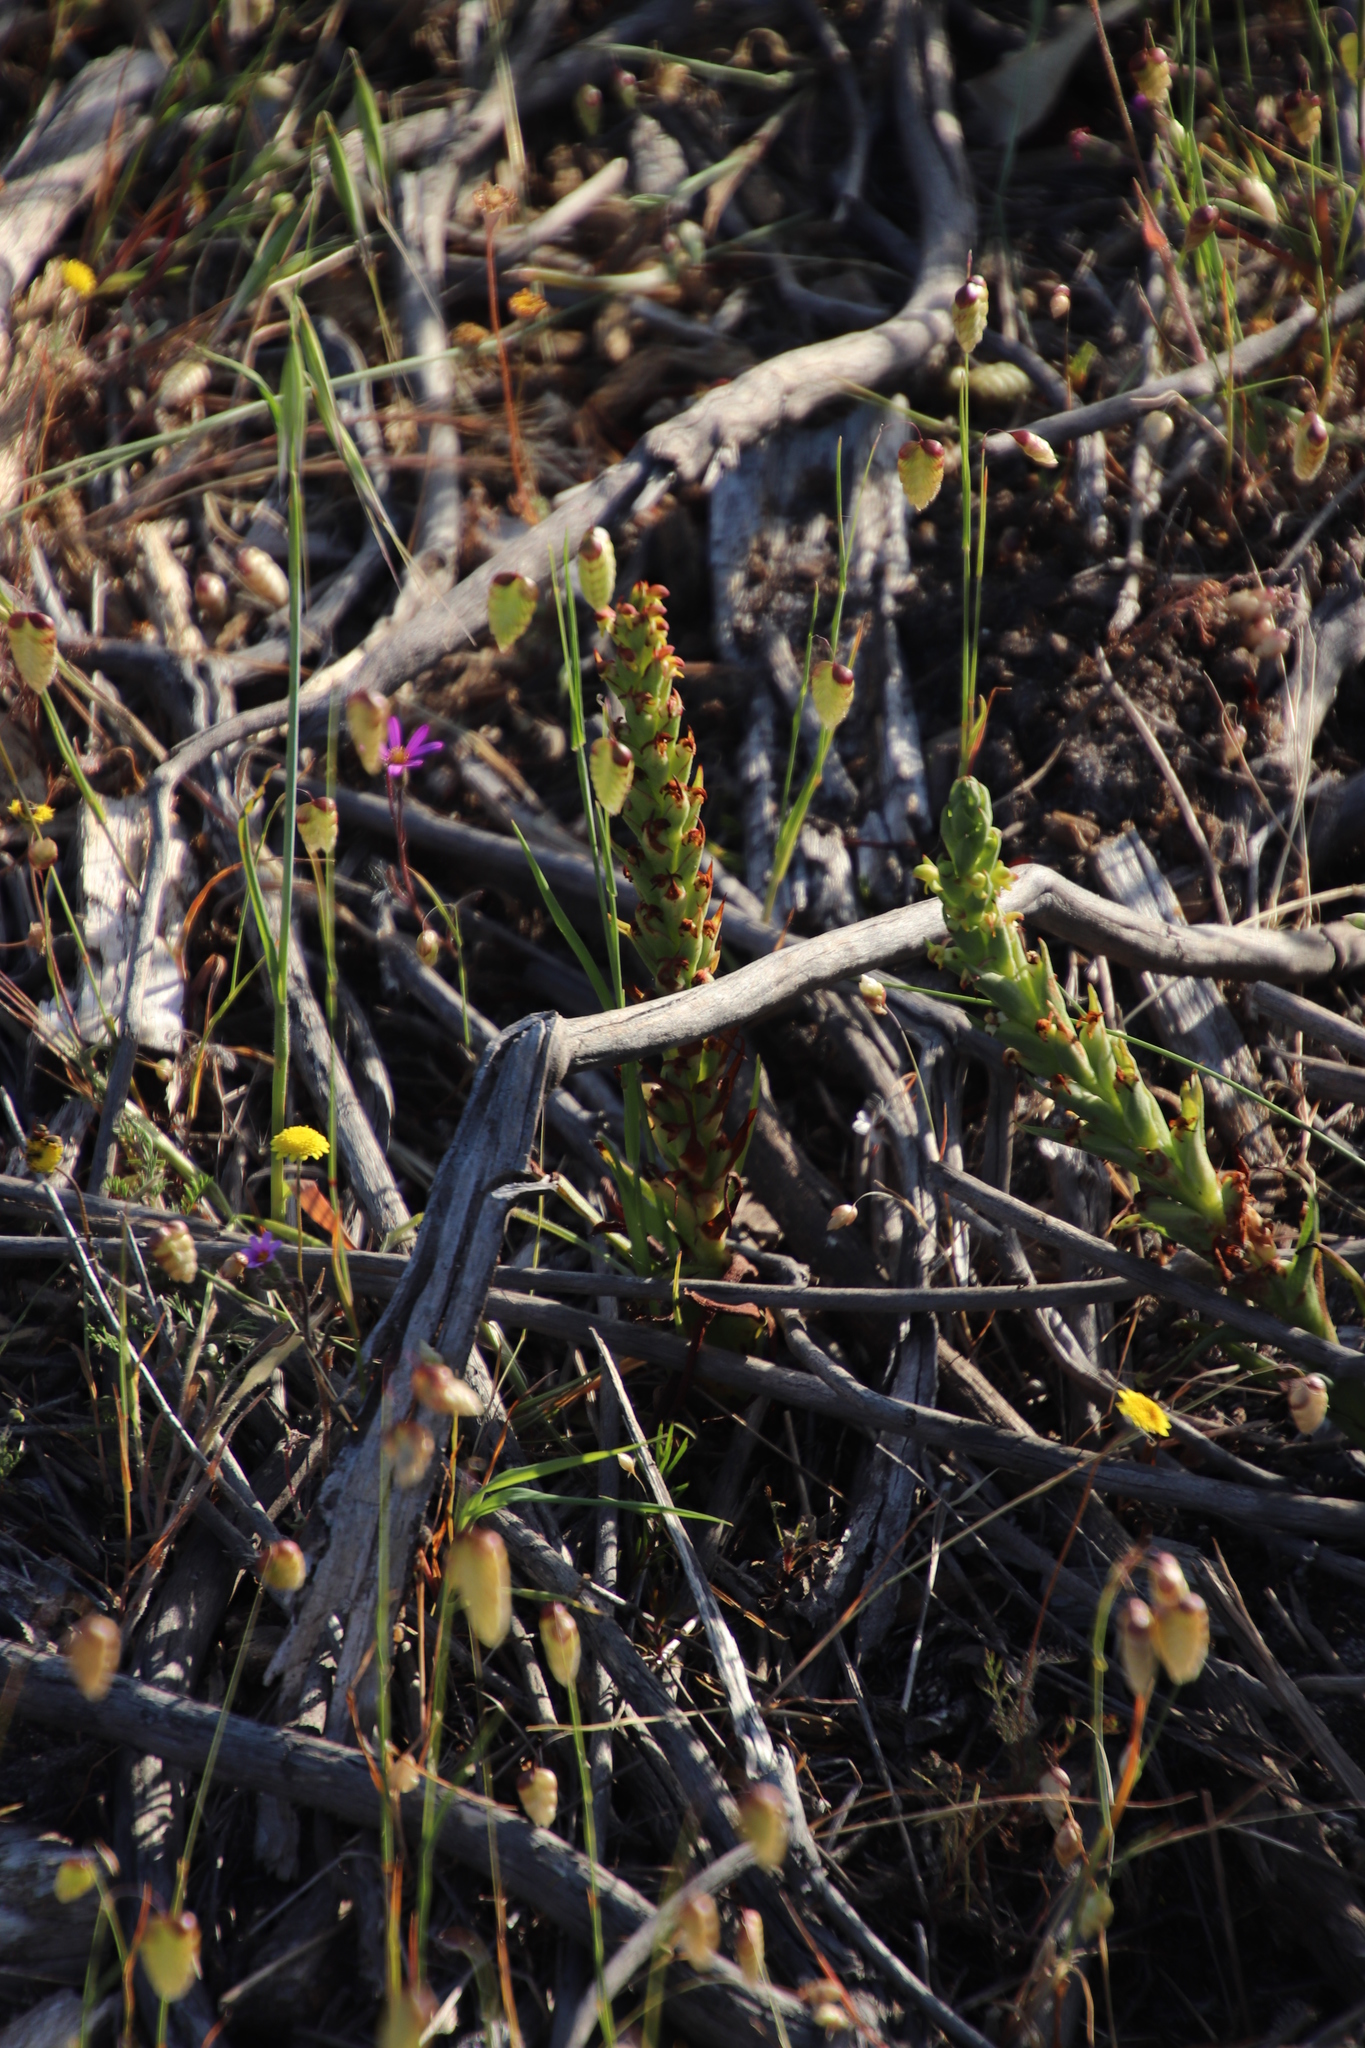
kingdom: Plantae
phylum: Tracheophyta
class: Liliopsida
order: Asparagales
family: Orchidaceae
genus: Disa
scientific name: Disa bracteata
